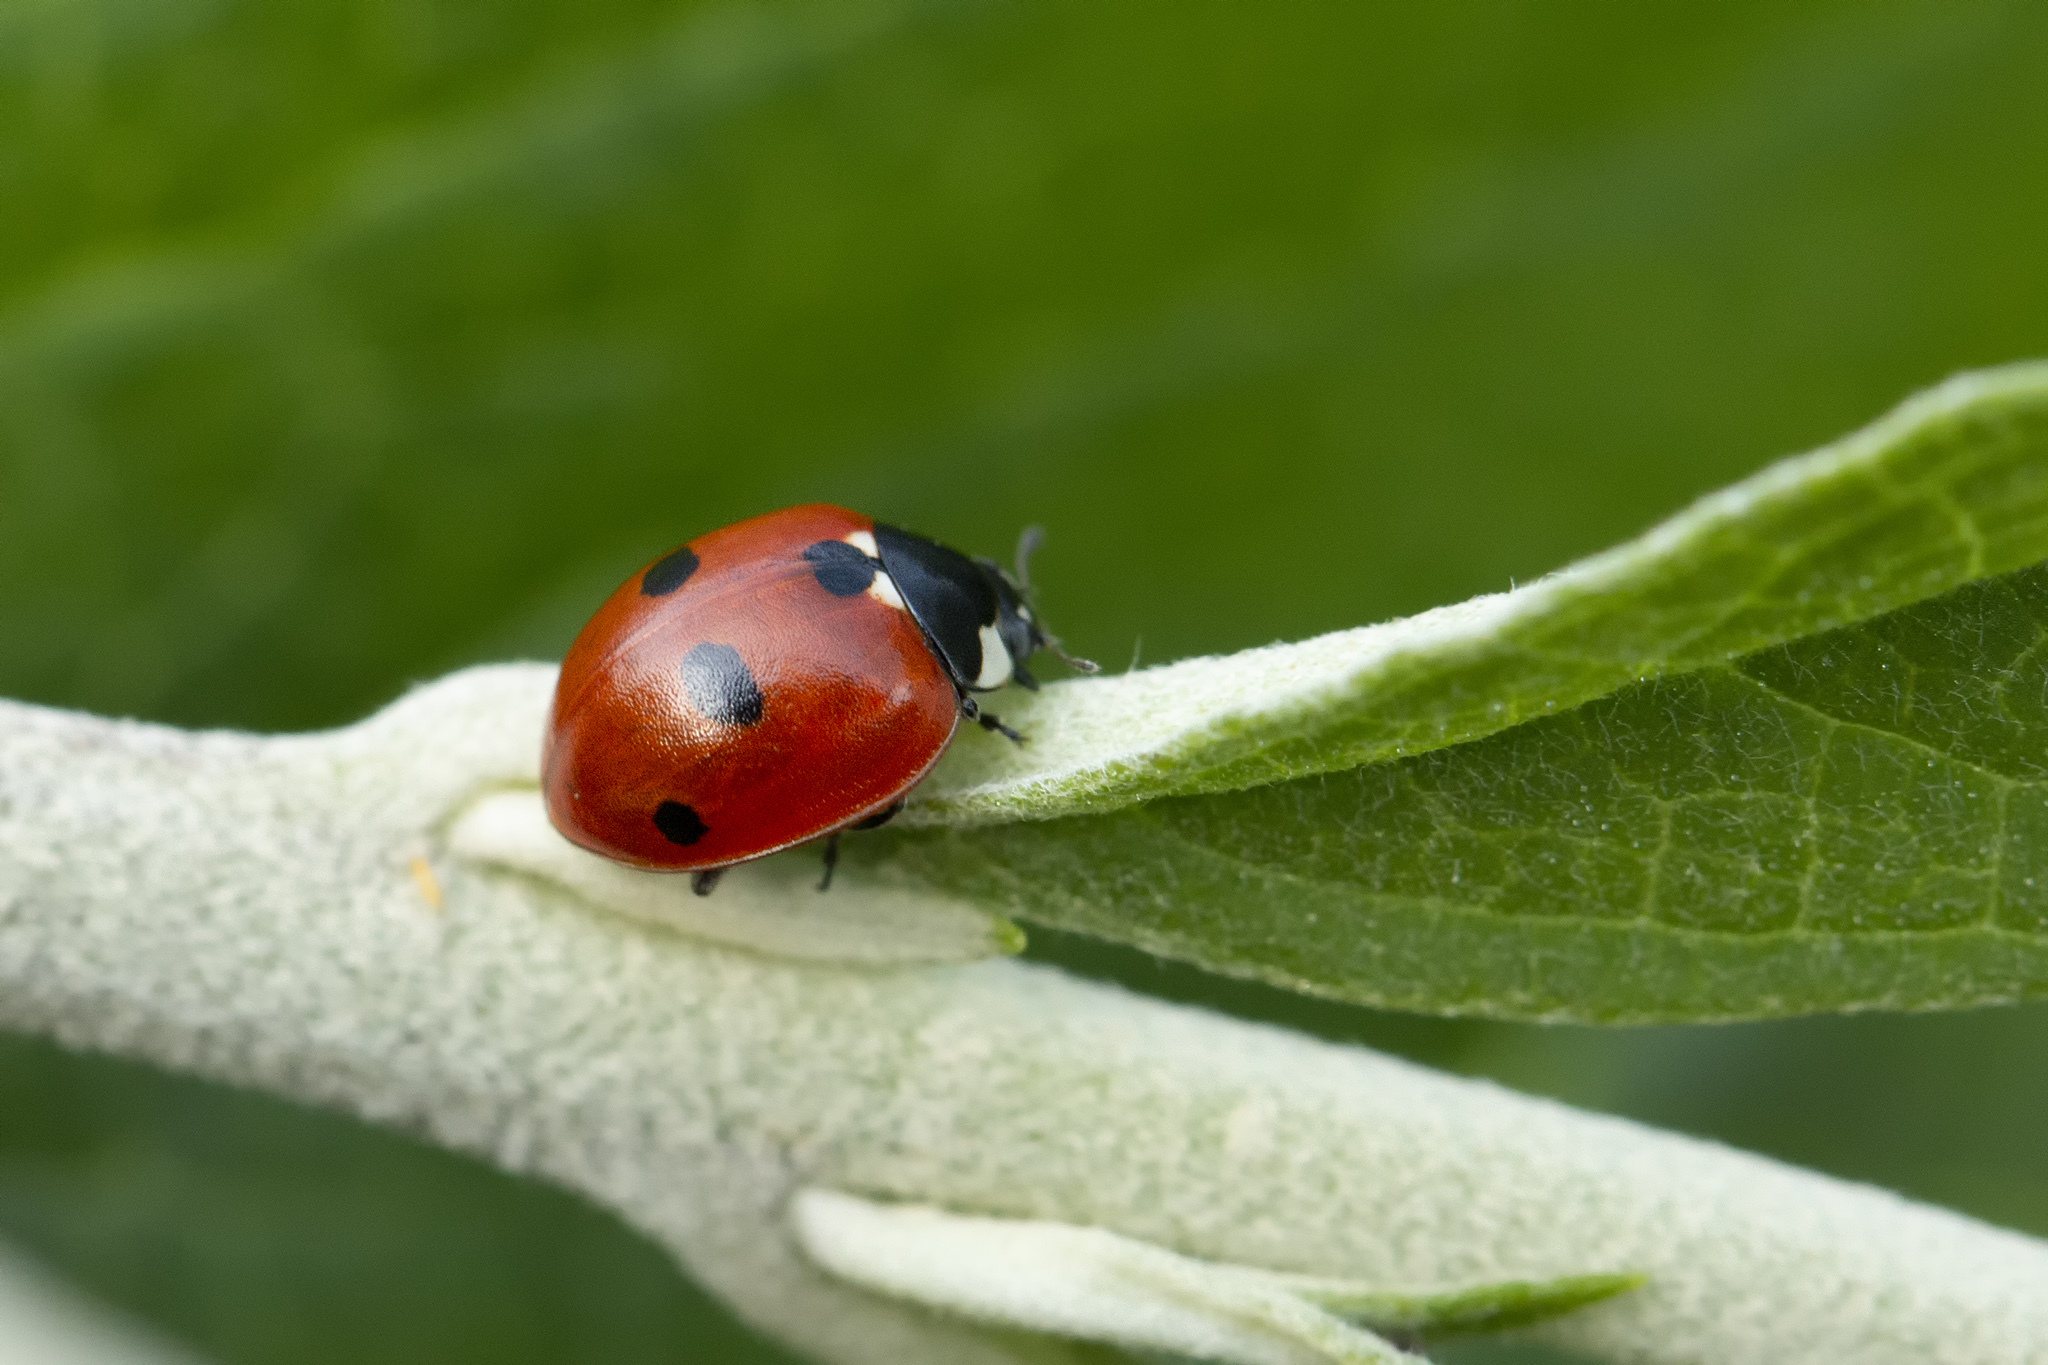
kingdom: Animalia
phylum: Arthropoda
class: Insecta
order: Coleoptera
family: Coccinellidae
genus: Coccinella
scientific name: Coccinella quinquepunctata
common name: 5-spot ladybird
